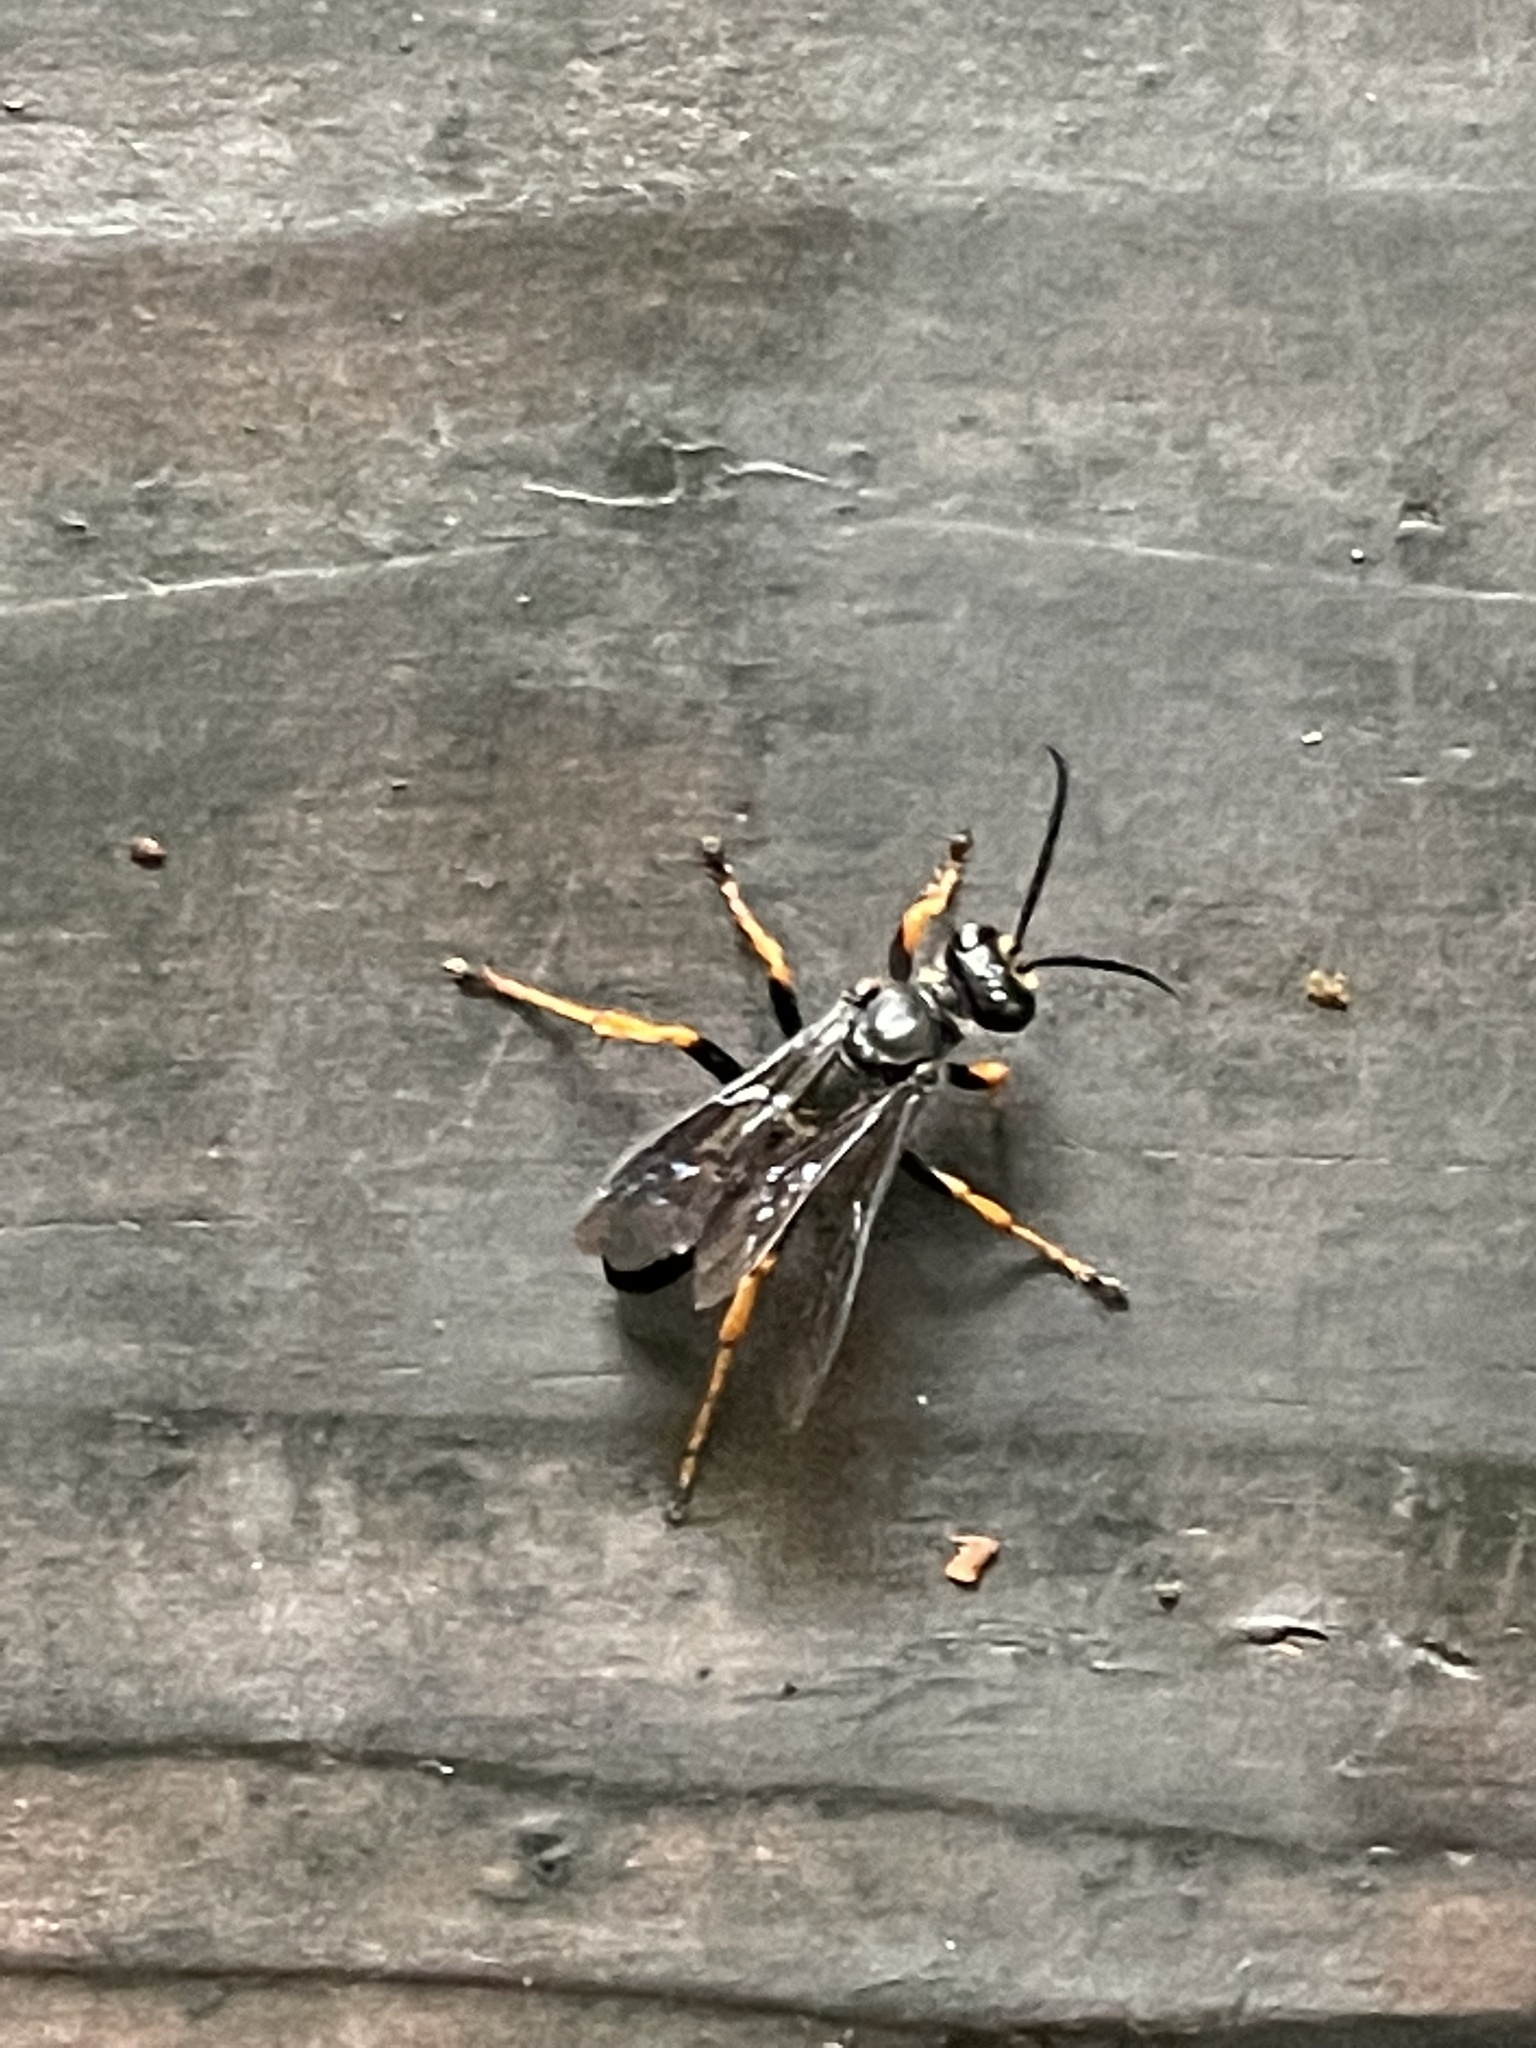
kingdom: Animalia
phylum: Arthropoda
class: Insecta
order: Hymenoptera
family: Sphecidae
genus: Sphex
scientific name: Sphex nudus
